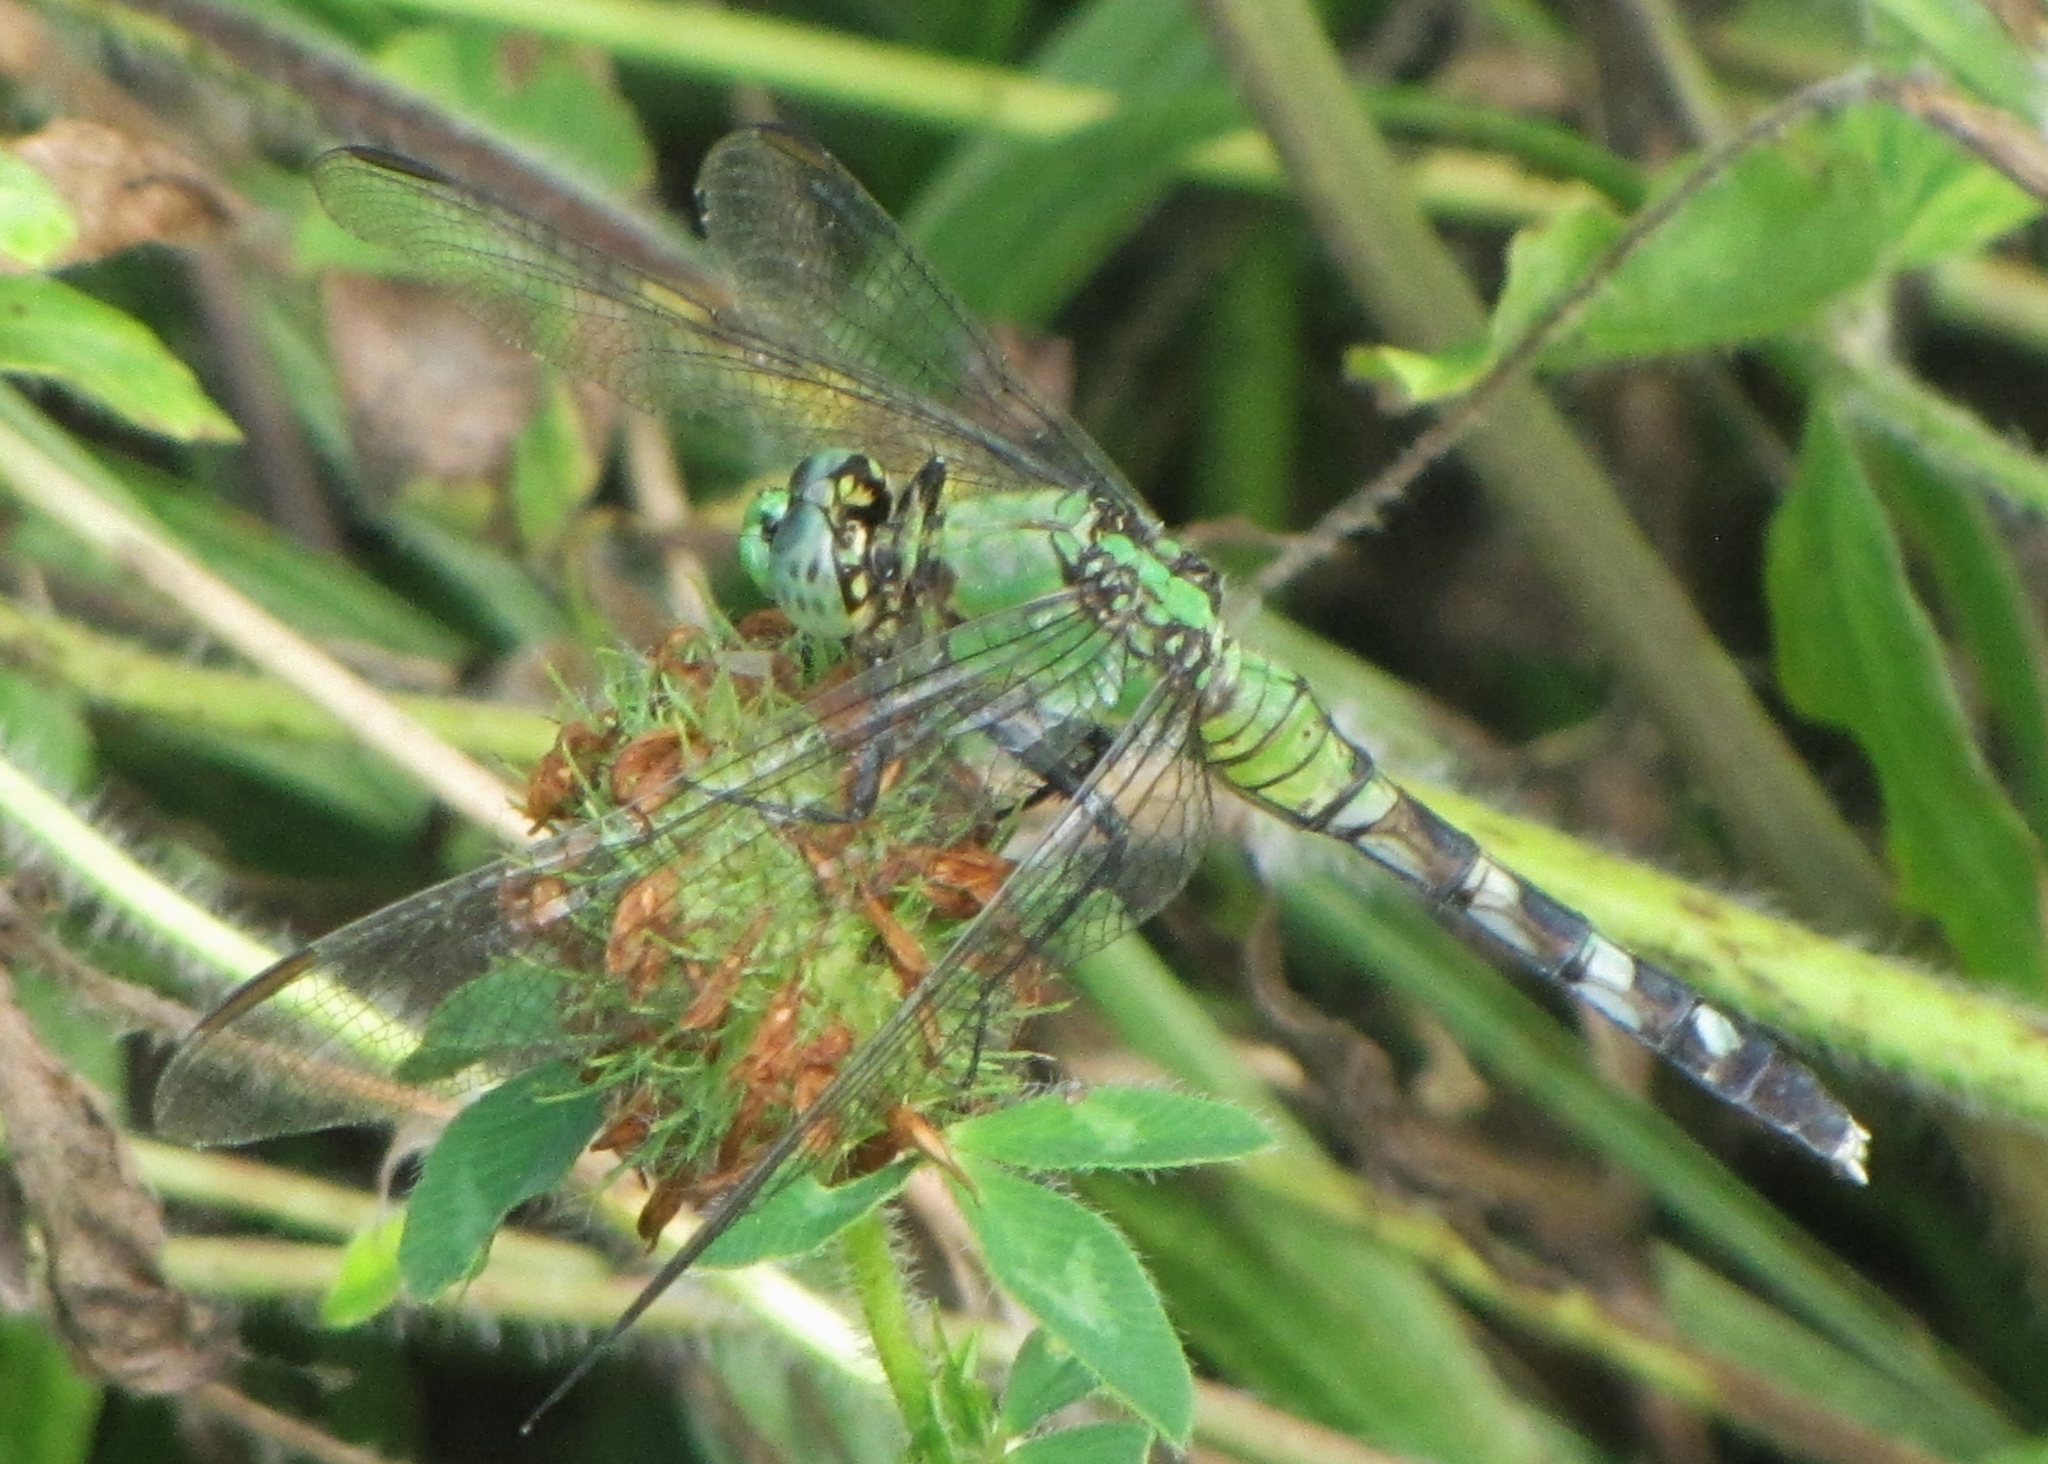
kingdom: Animalia
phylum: Arthropoda
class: Insecta
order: Odonata
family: Libellulidae
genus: Erythemis
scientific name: Erythemis simplicicollis
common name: Eastern pondhawk
